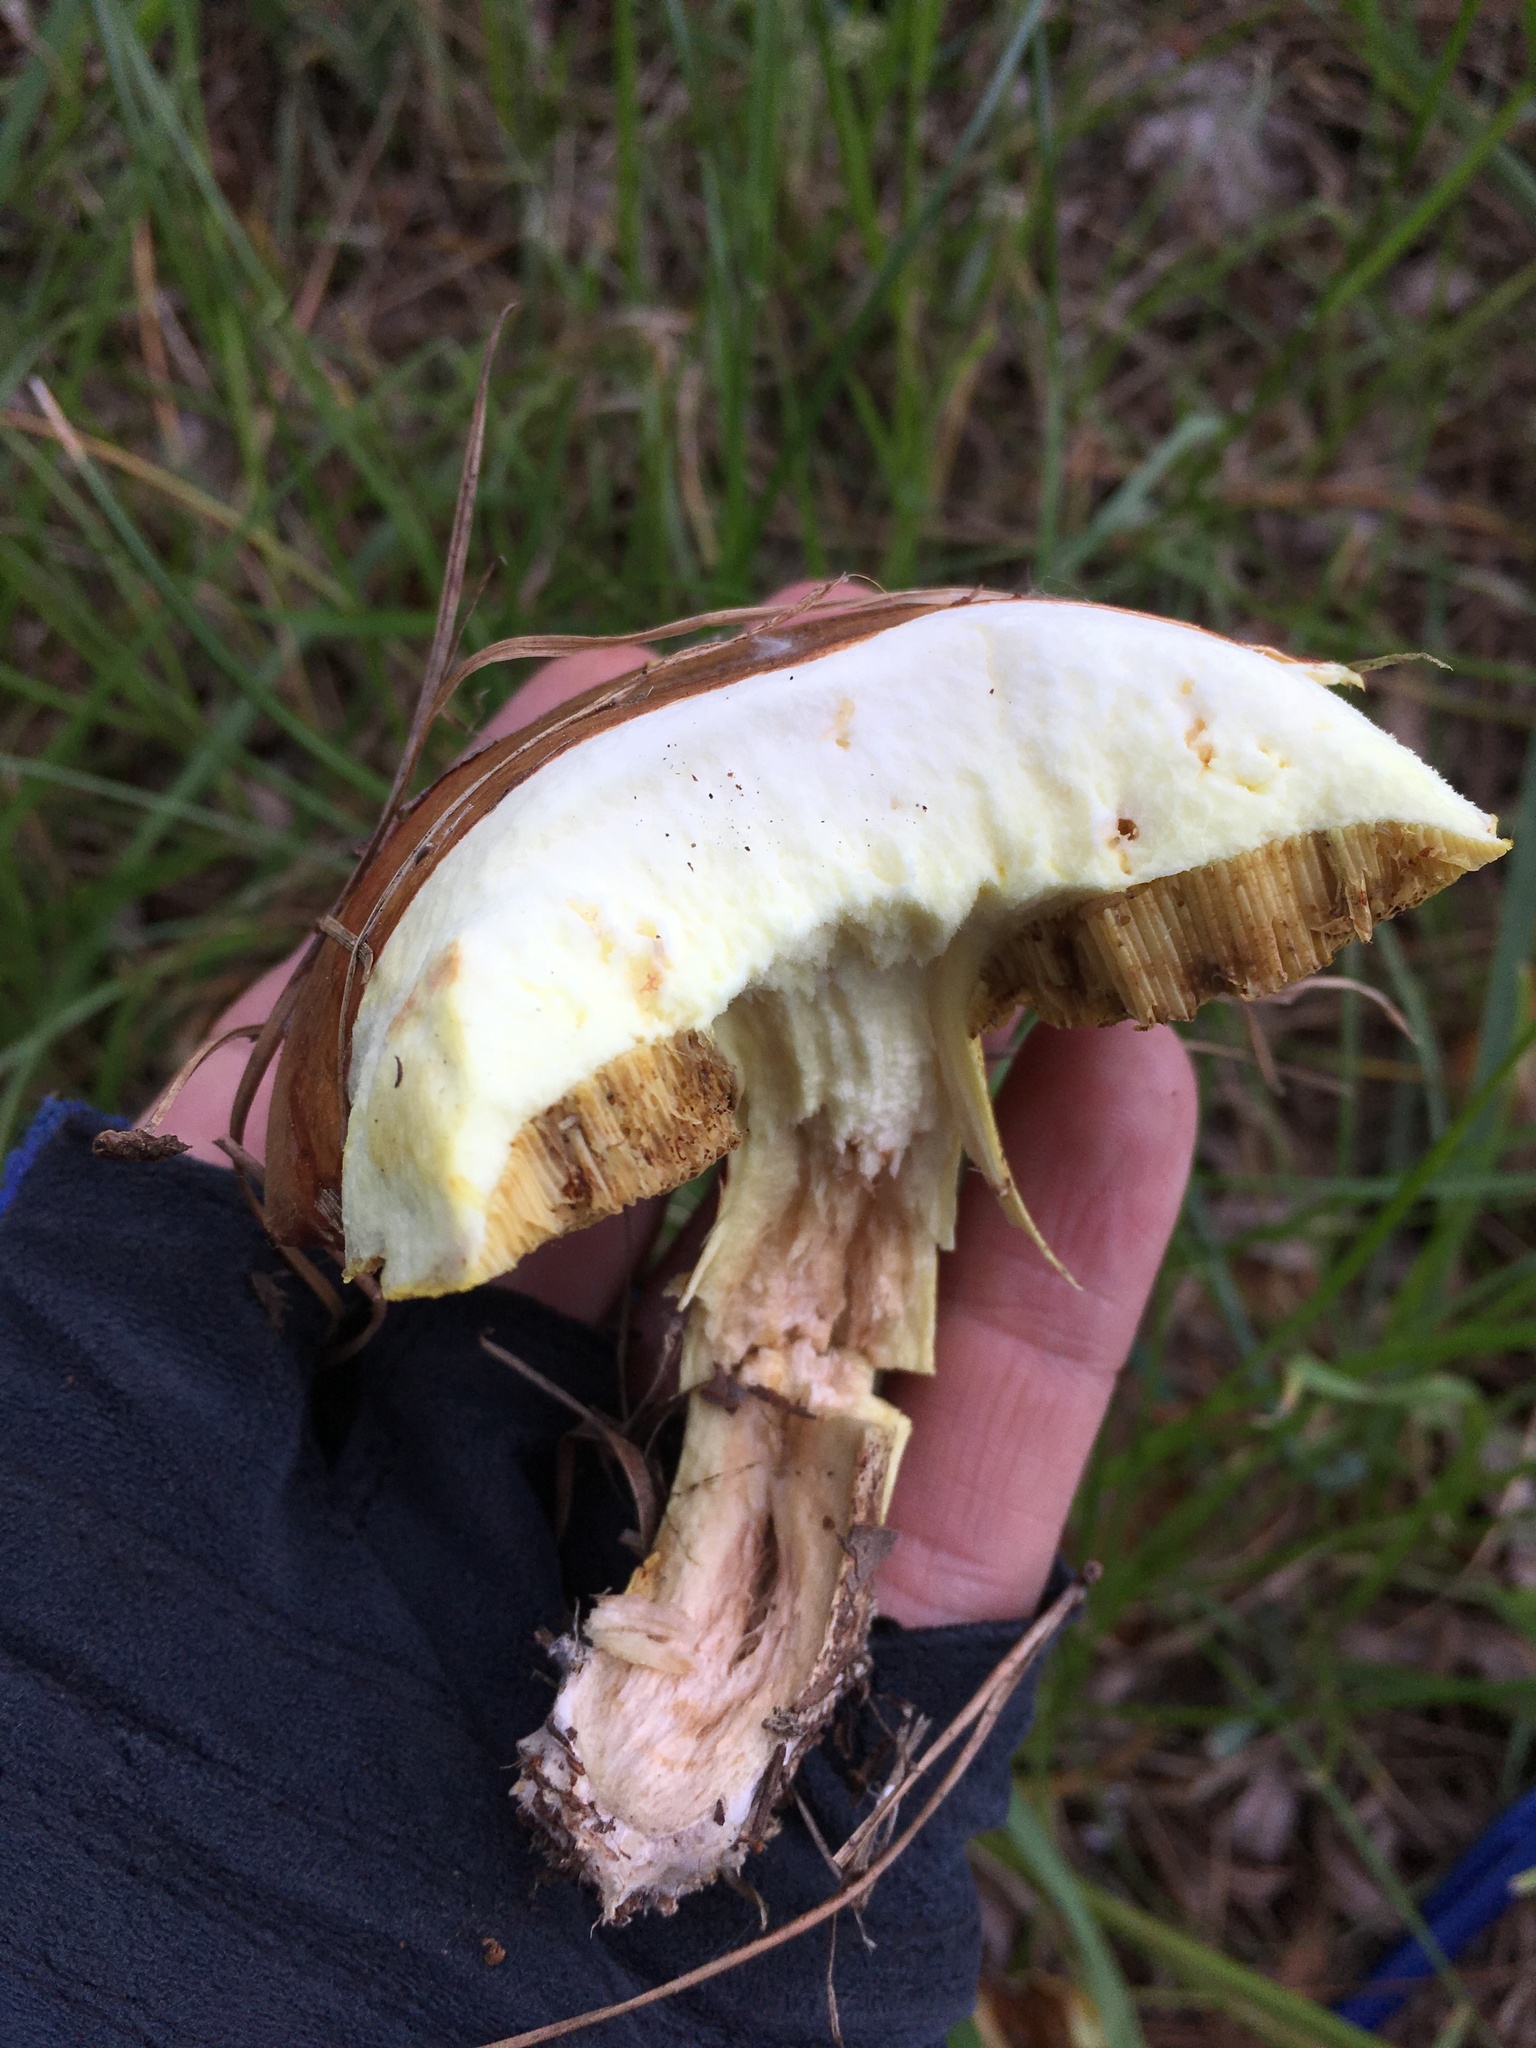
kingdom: Fungi
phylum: Basidiomycota
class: Agaricomycetes
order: Boletales
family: Suillaceae
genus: Suillus
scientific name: Suillus granulatus
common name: Weeping bolete
